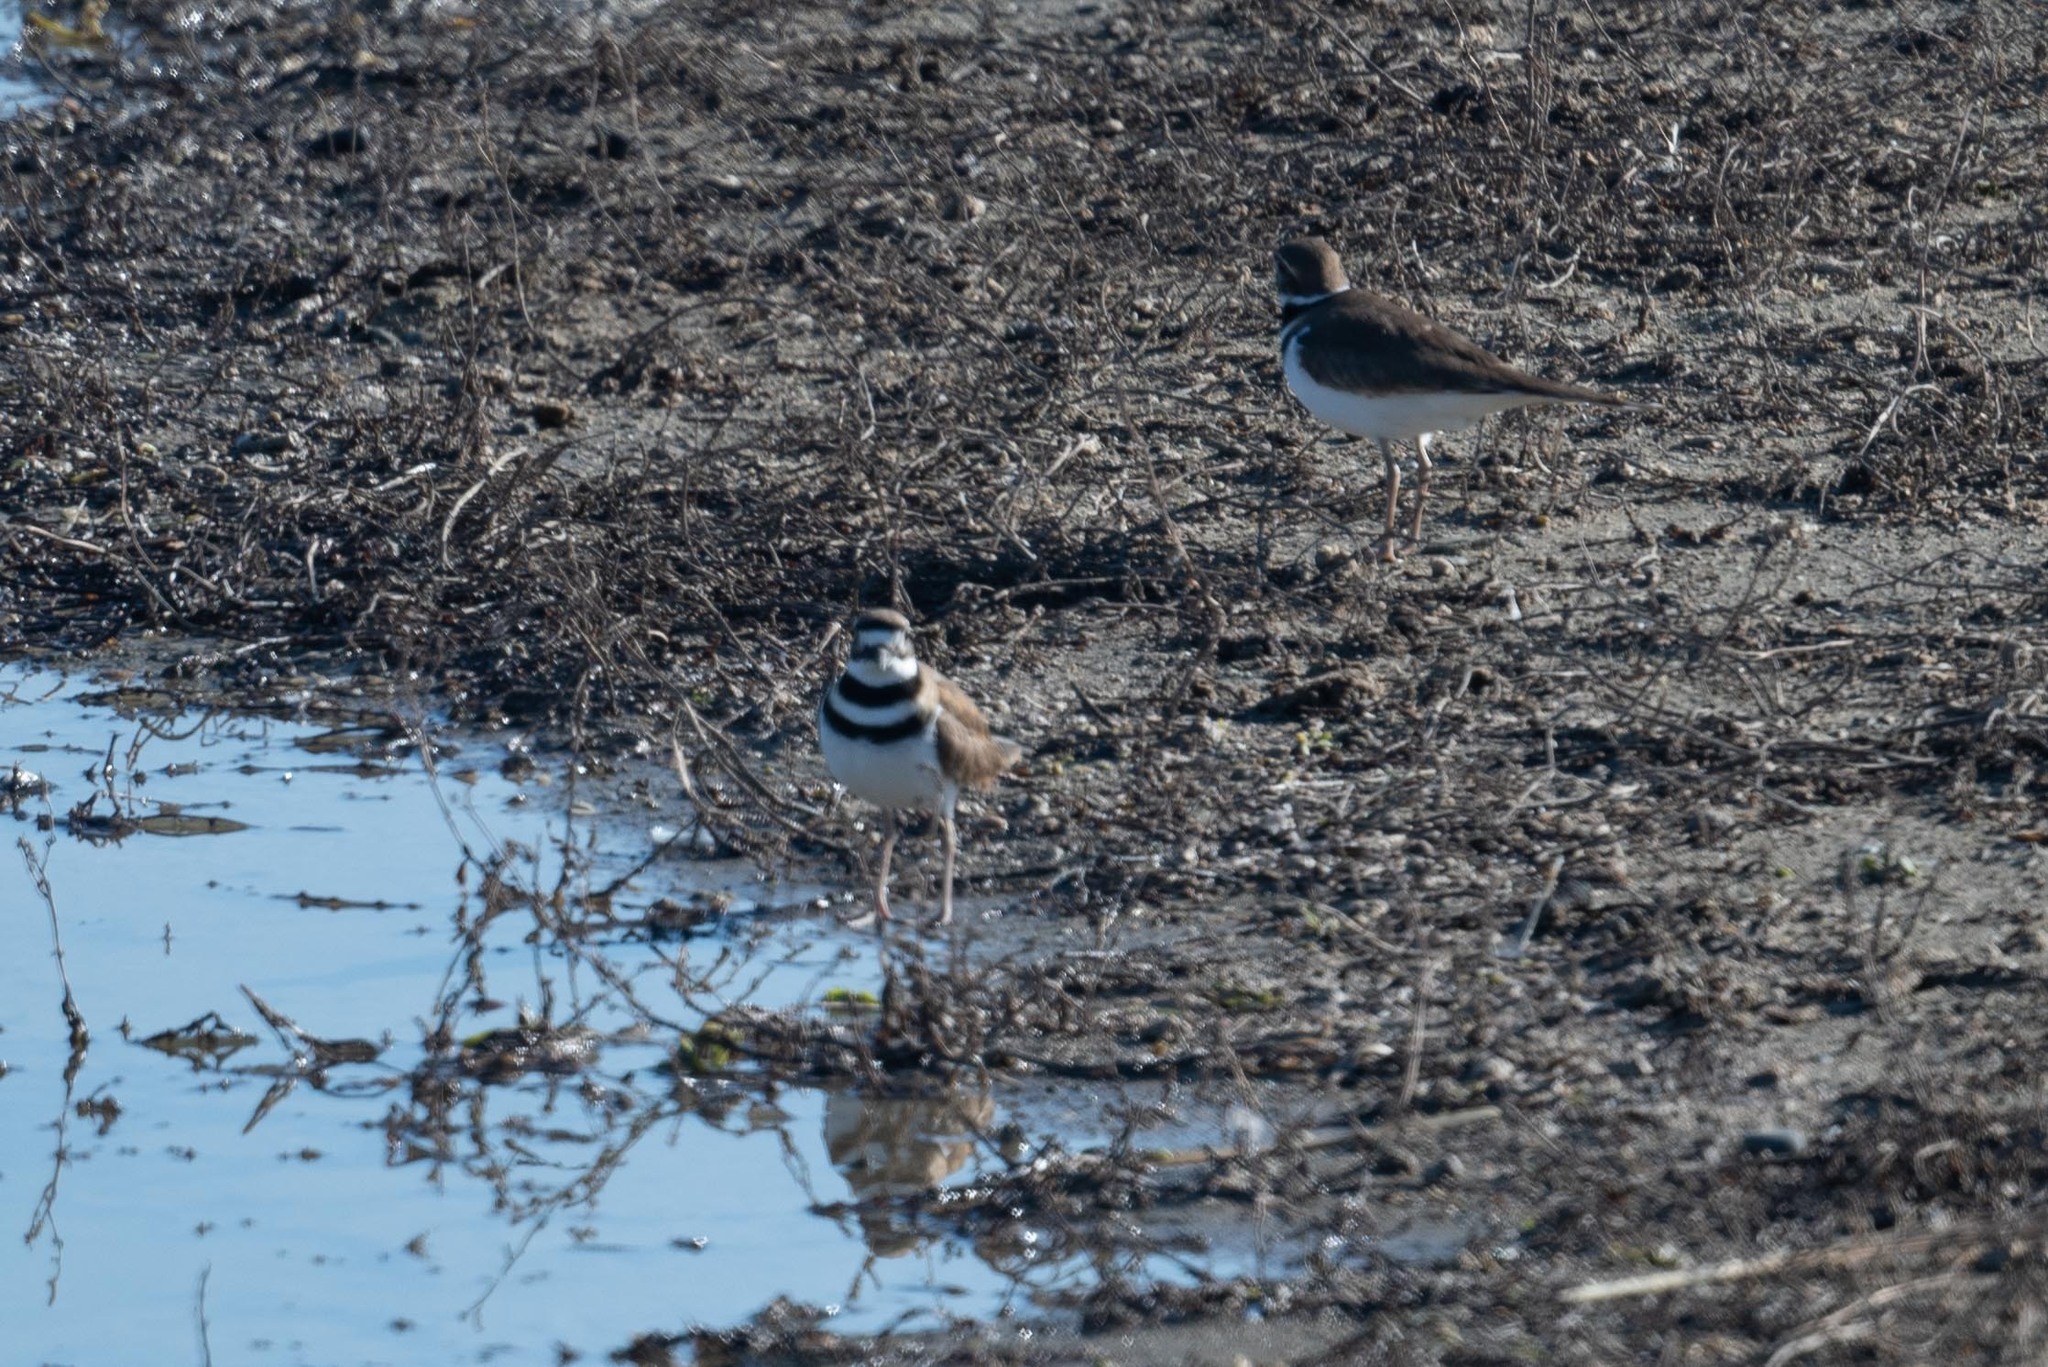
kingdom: Animalia
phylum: Chordata
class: Aves
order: Charadriiformes
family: Charadriidae
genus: Charadrius
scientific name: Charadrius vociferus
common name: Killdeer
